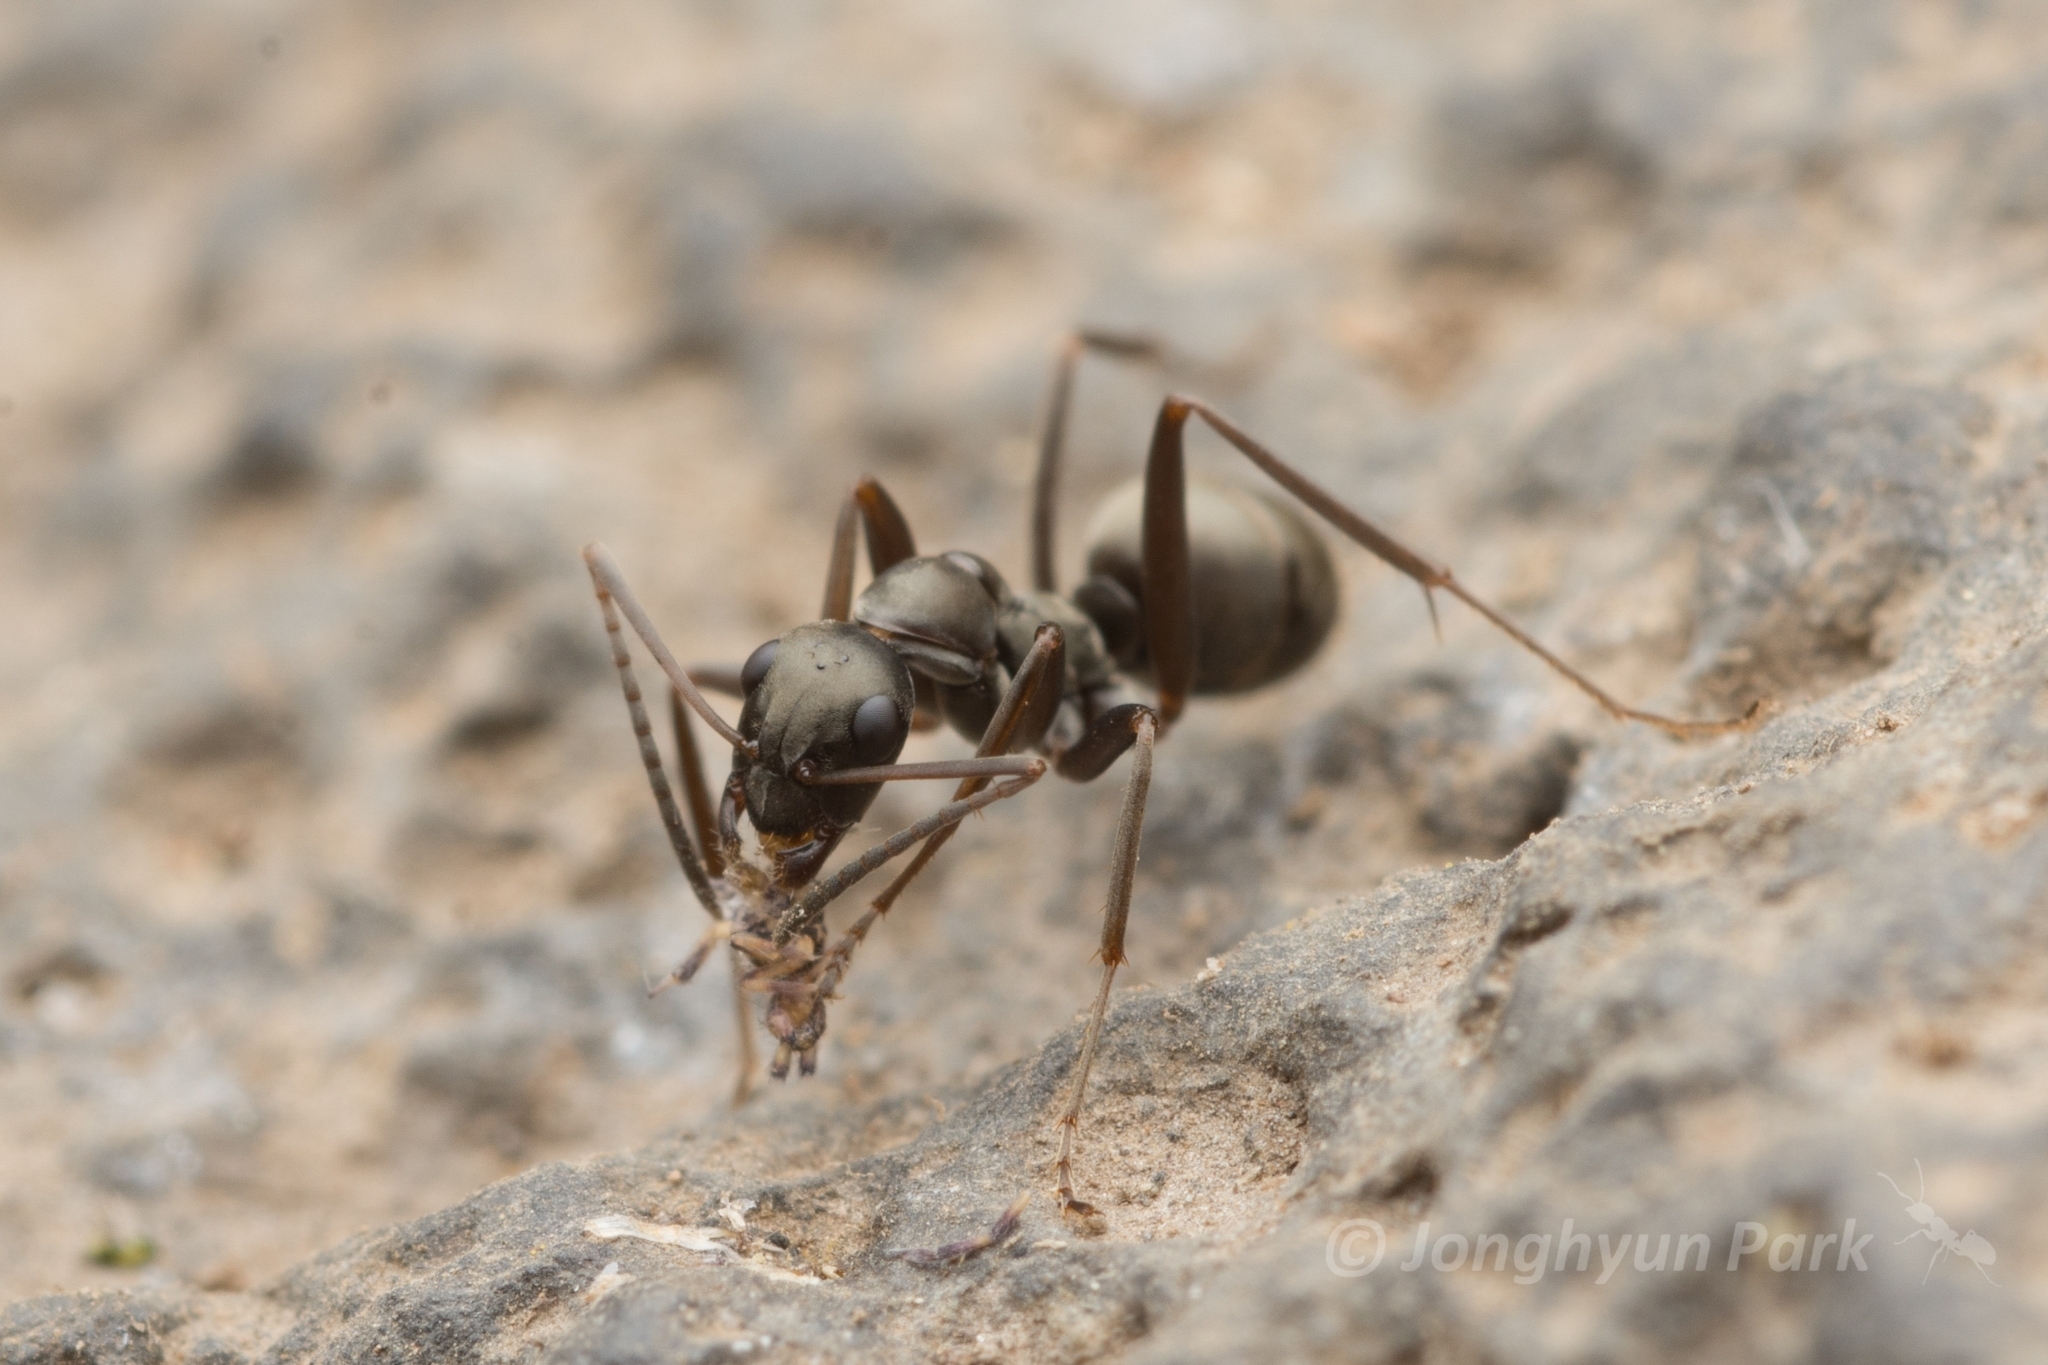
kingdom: Animalia
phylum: Arthropoda
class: Insecta
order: Hymenoptera
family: Formicidae
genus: Formica
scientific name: Formica hayashi
